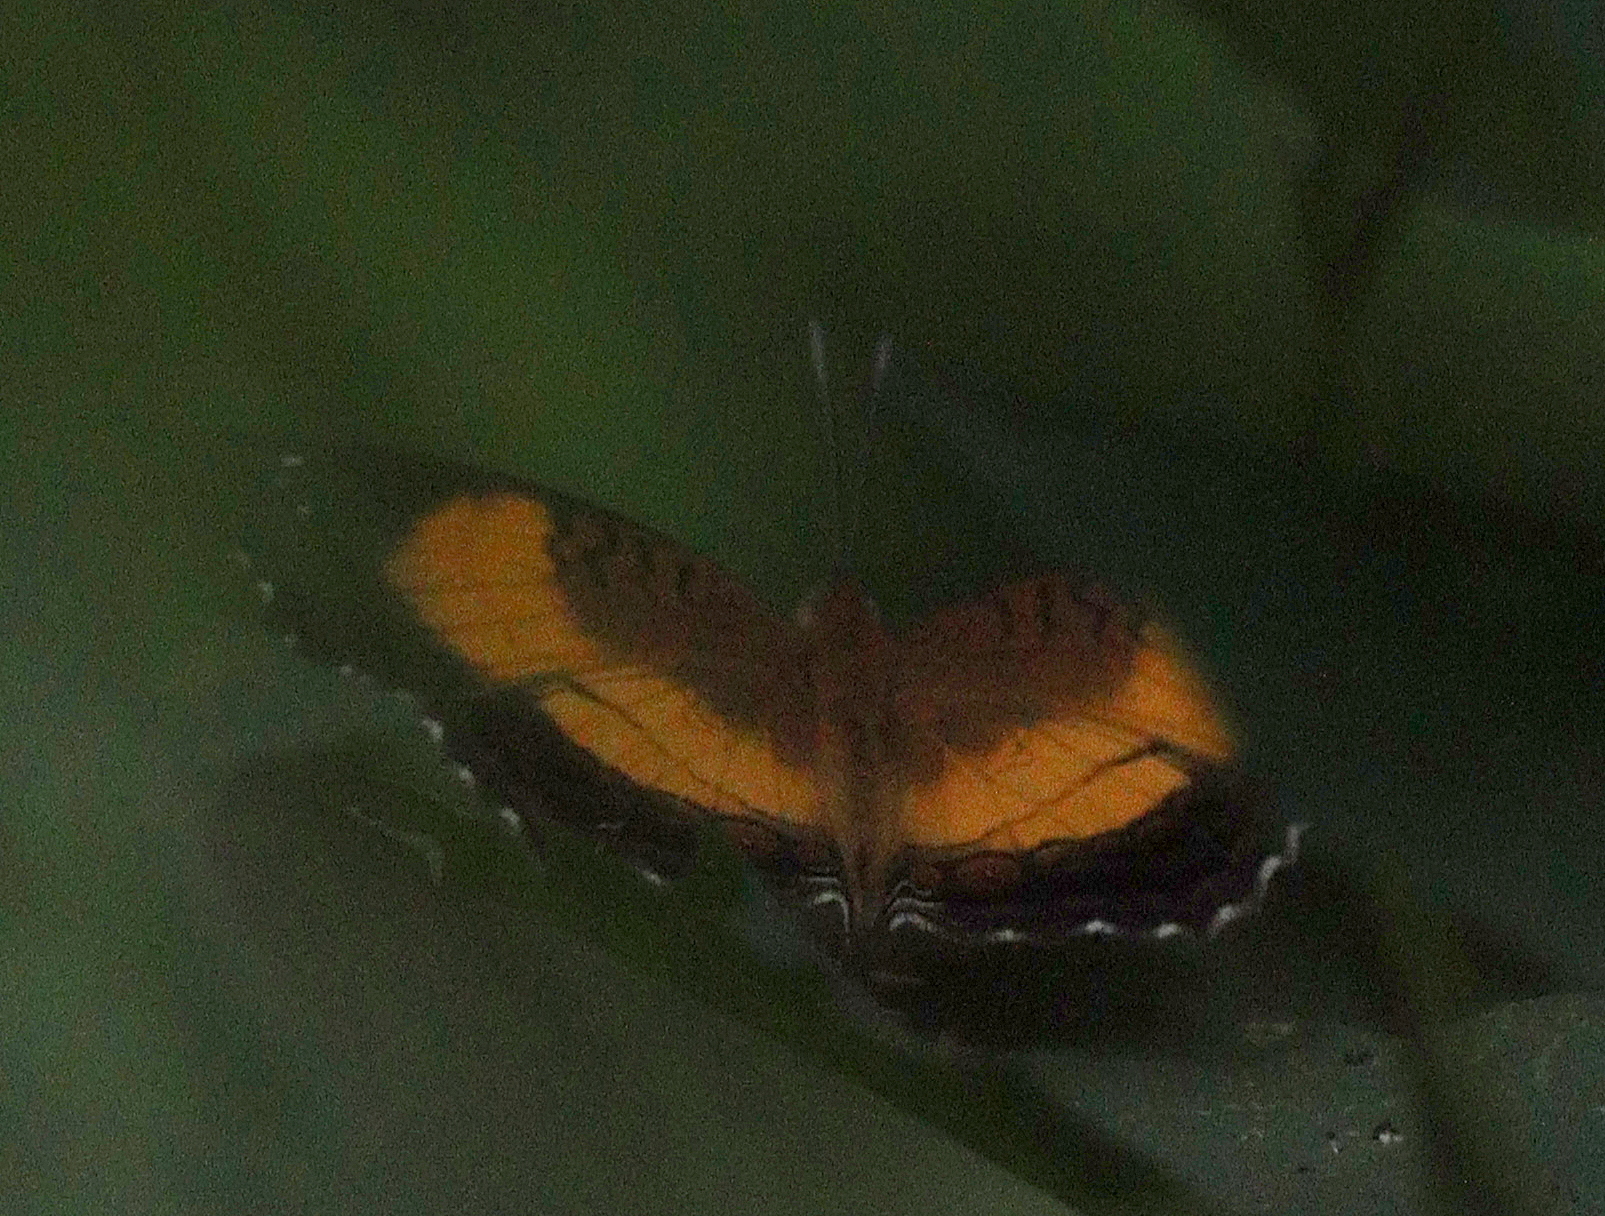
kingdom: Animalia
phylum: Arthropoda
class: Insecta
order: Lepidoptera
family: Nymphalidae
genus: Junonia
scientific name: Junonia terea
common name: Soldier pansy
